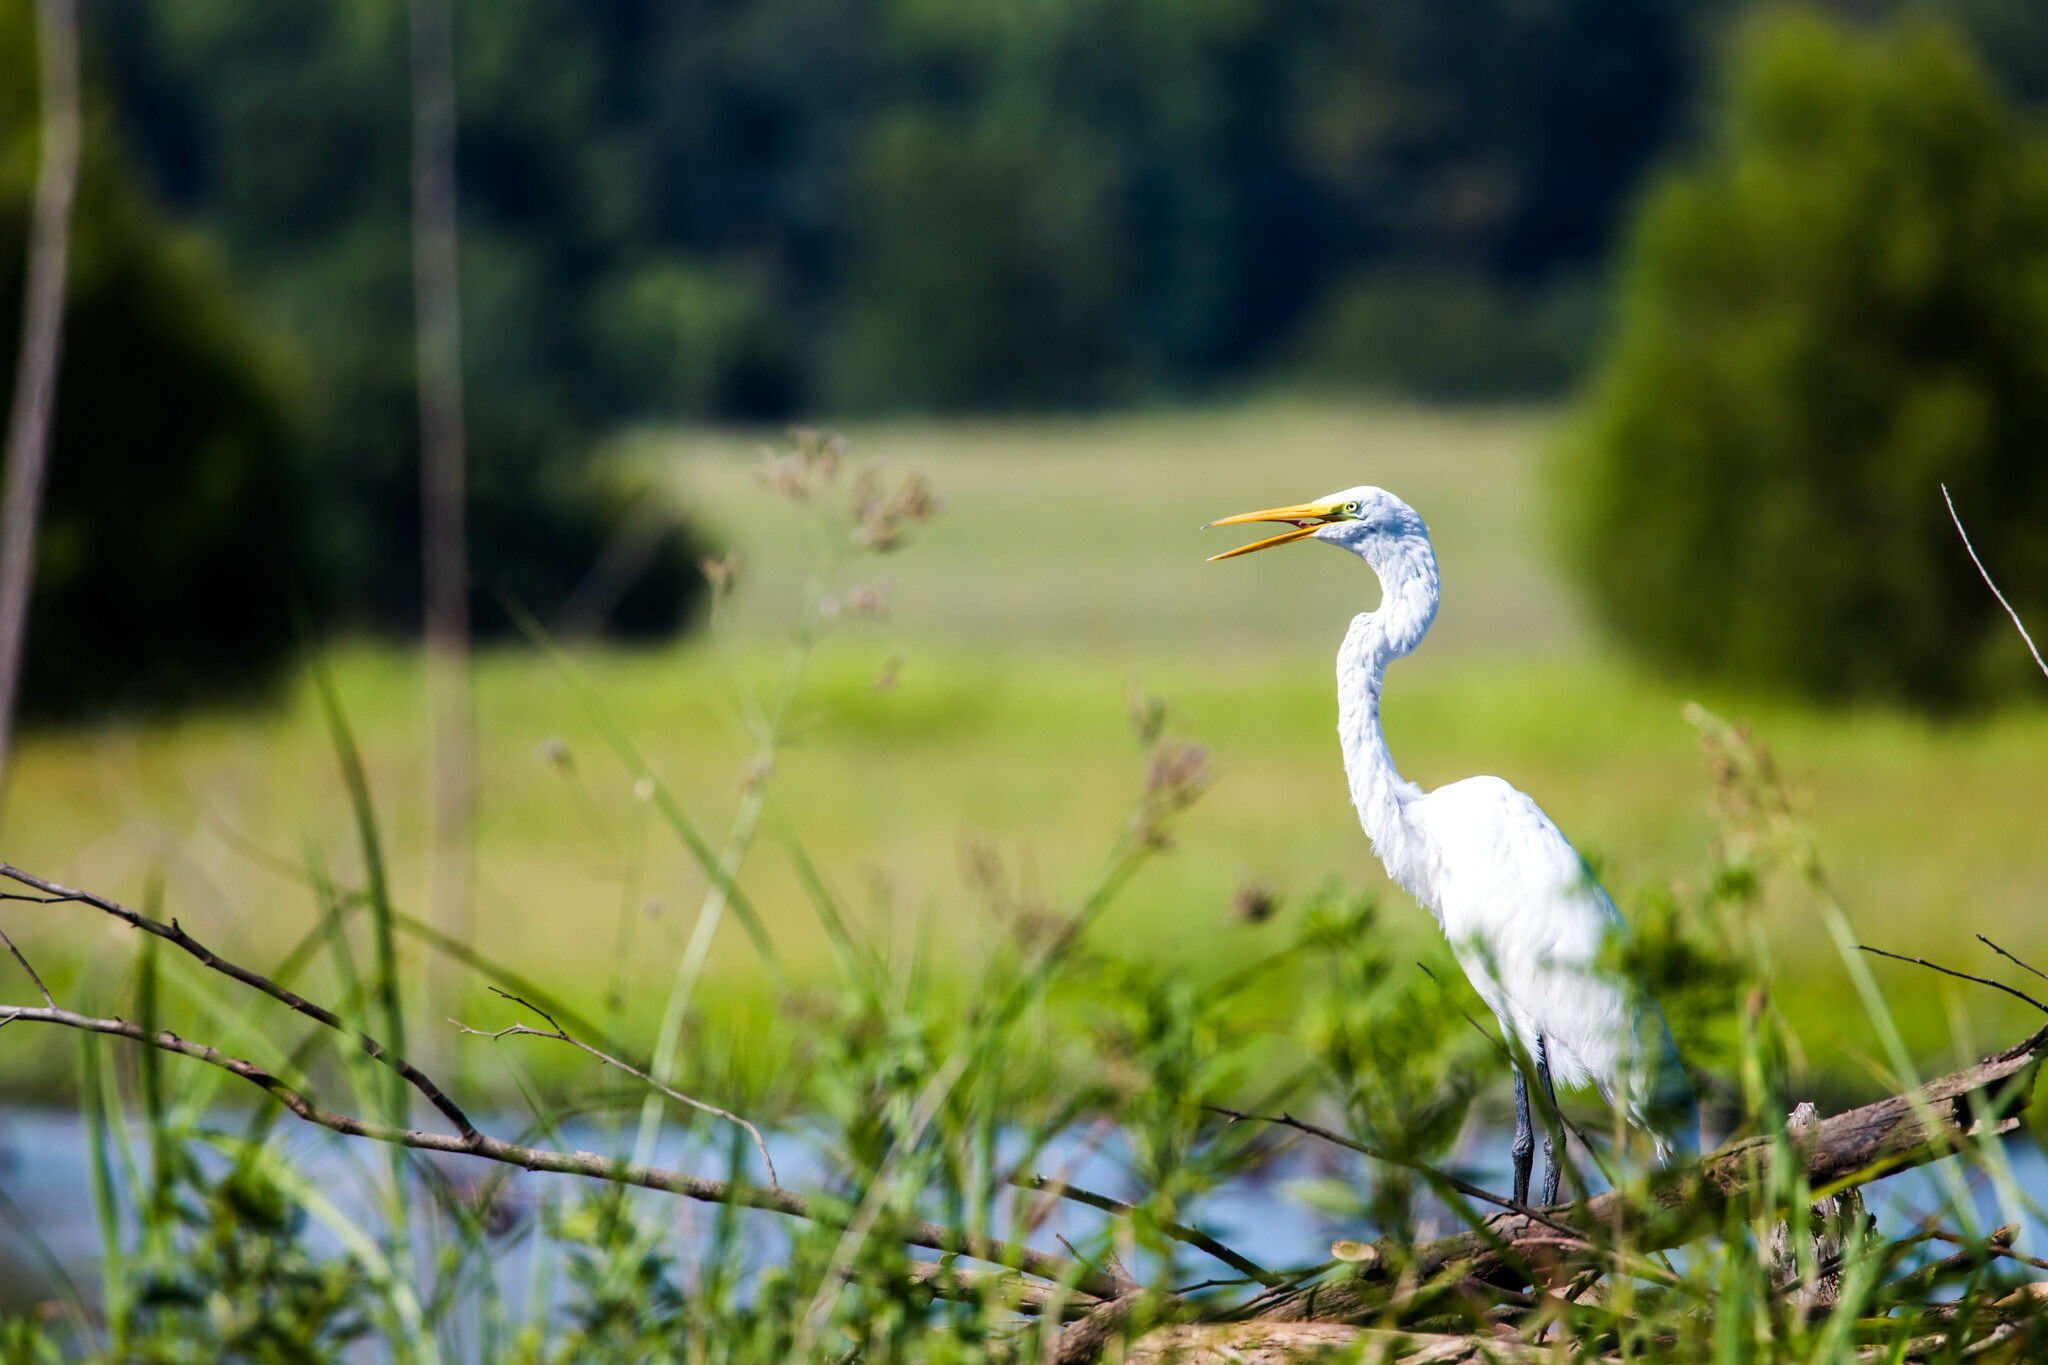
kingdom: Animalia
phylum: Chordata
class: Aves
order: Pelecaniformes
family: Ardeidae
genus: Ardea
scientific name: Ardea alba
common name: Great egret
